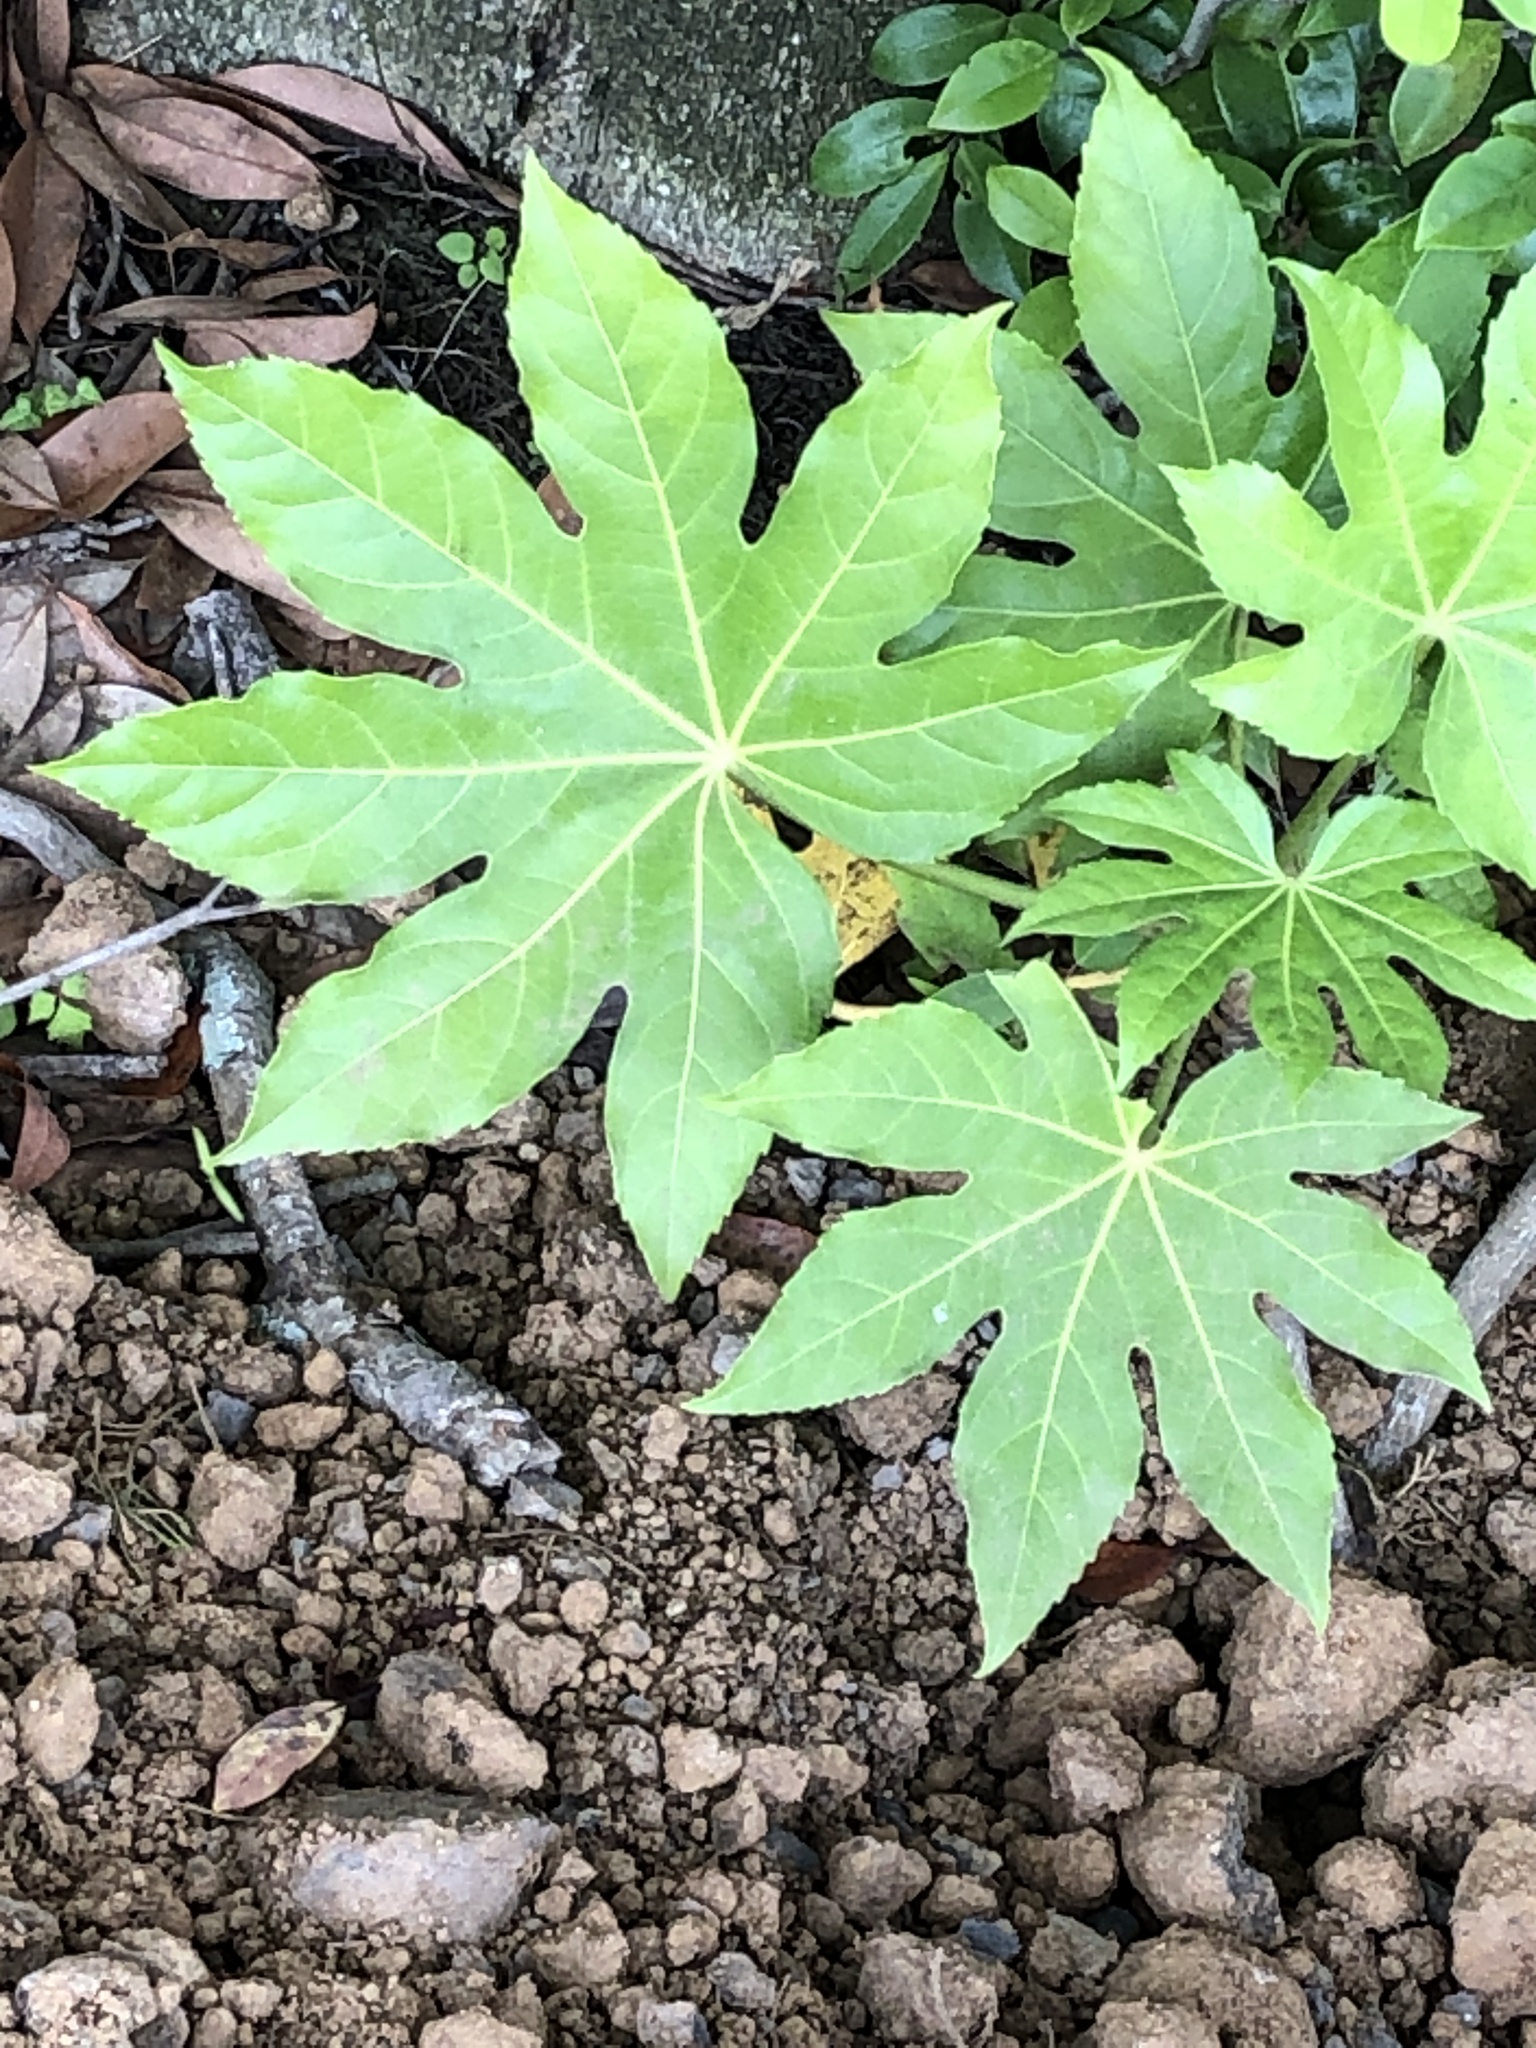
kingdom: Plantae
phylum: Tracheophyta
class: Magnoliopsida
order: Apiales
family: Araliaceae
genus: Fatsia
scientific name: Fatsia japonica
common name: Fatsia
